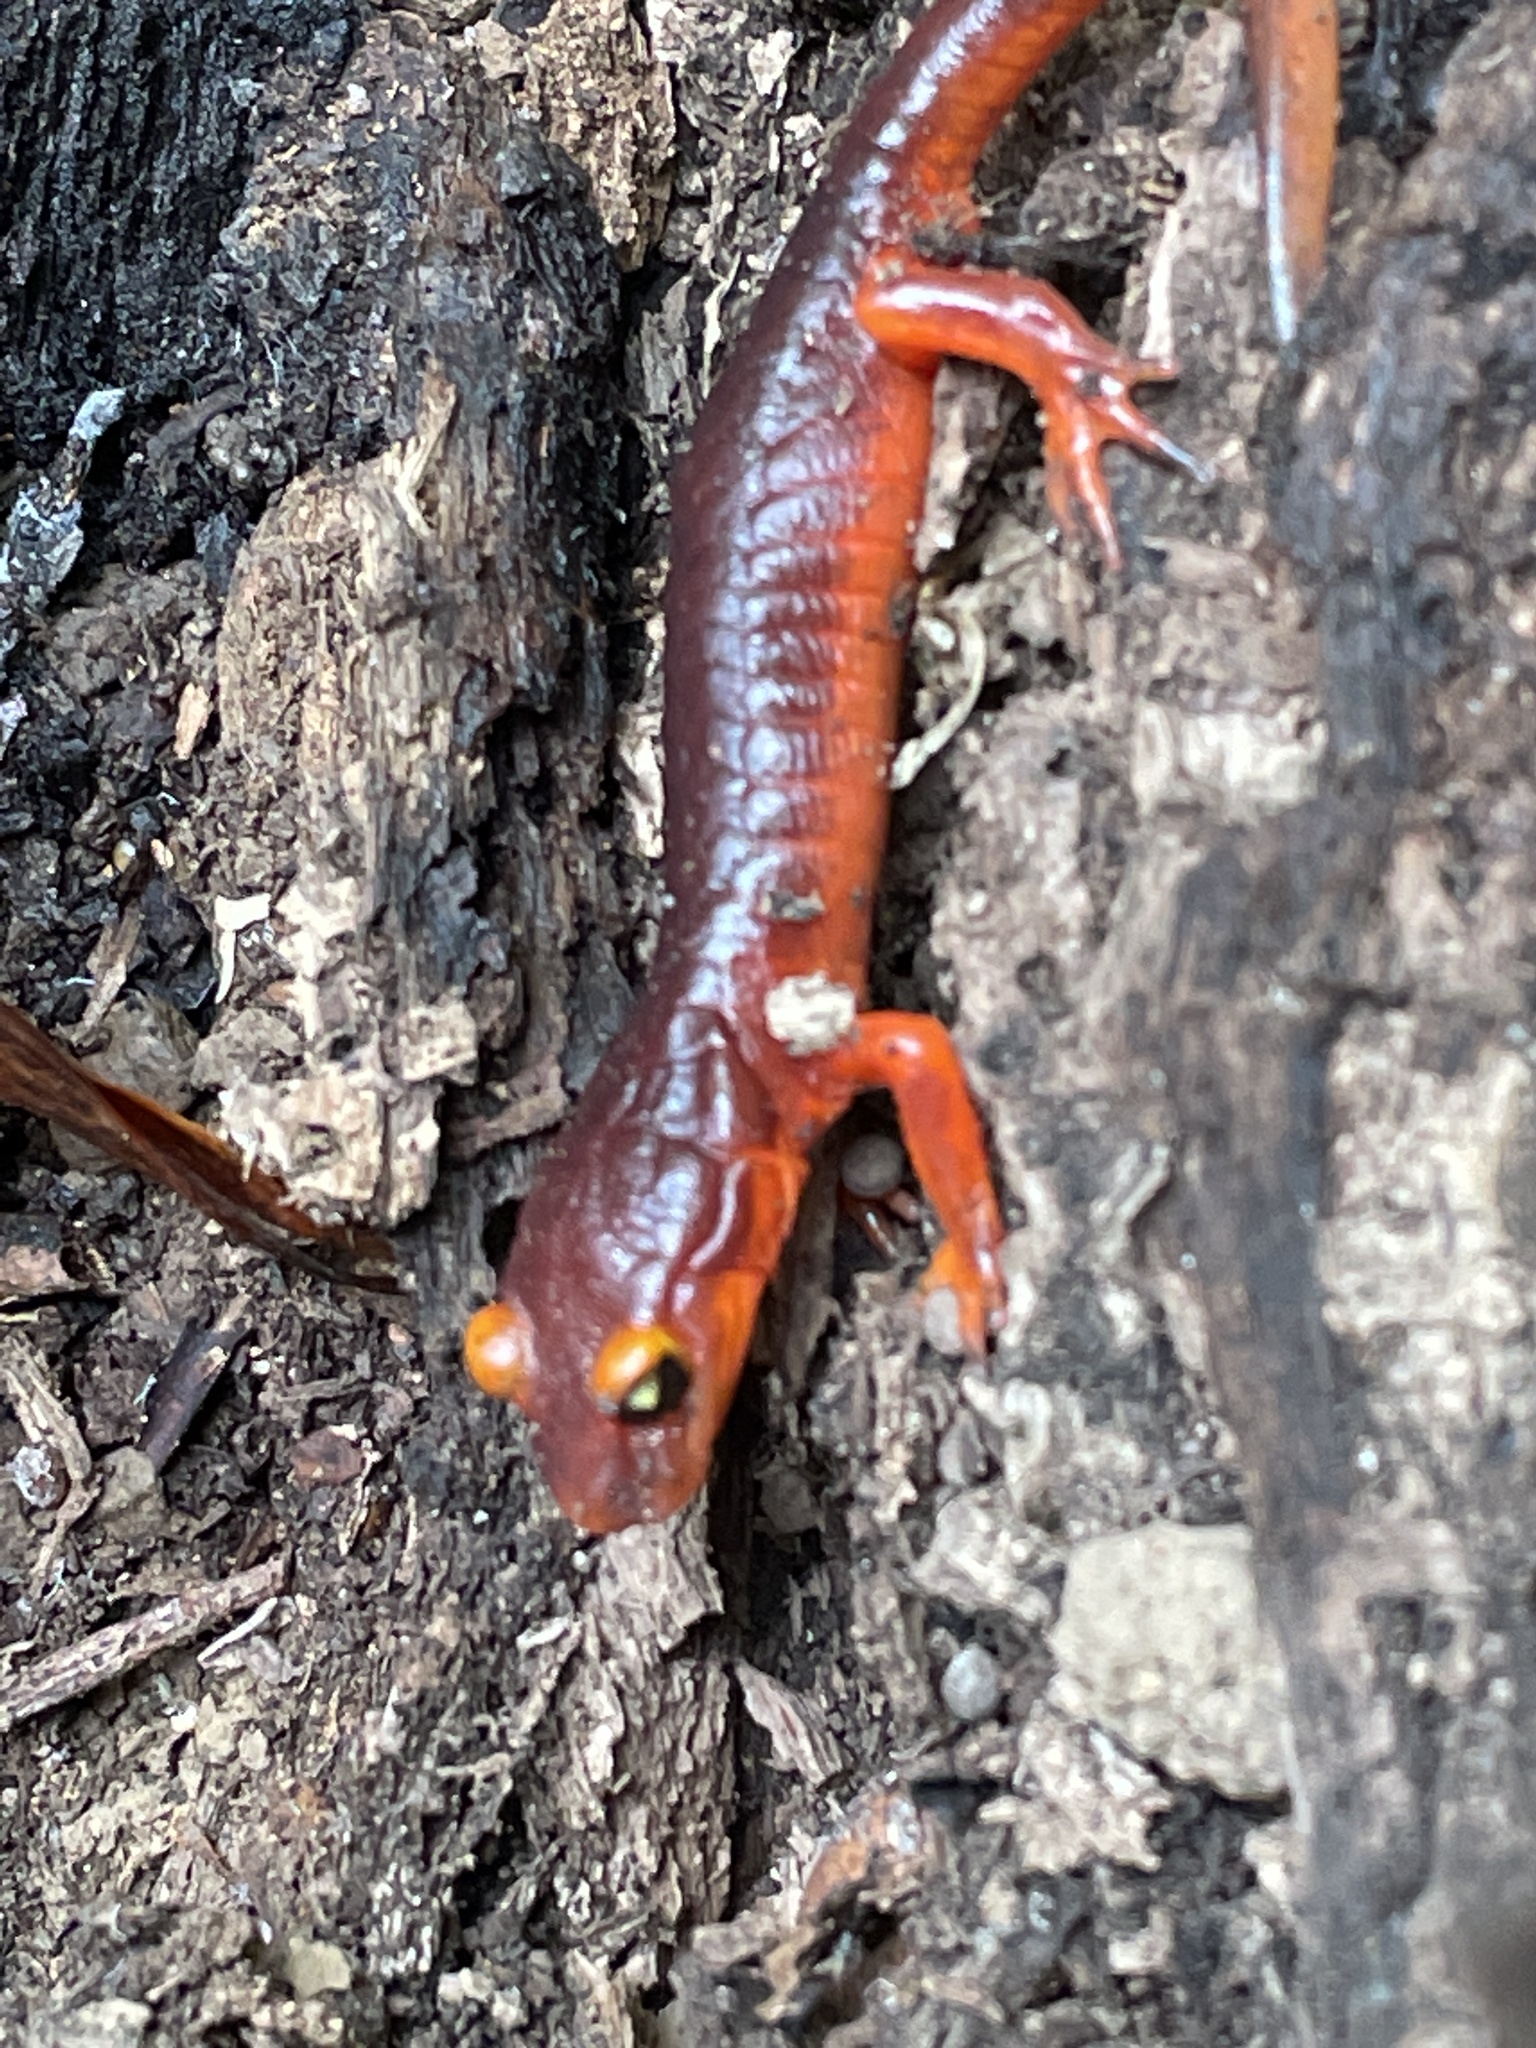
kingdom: Animalia
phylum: Chordata
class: Amphibia
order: Caudata
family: Plethodontidae
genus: Ensatina
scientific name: Ensatina eschscholtzii
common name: Ensatina
